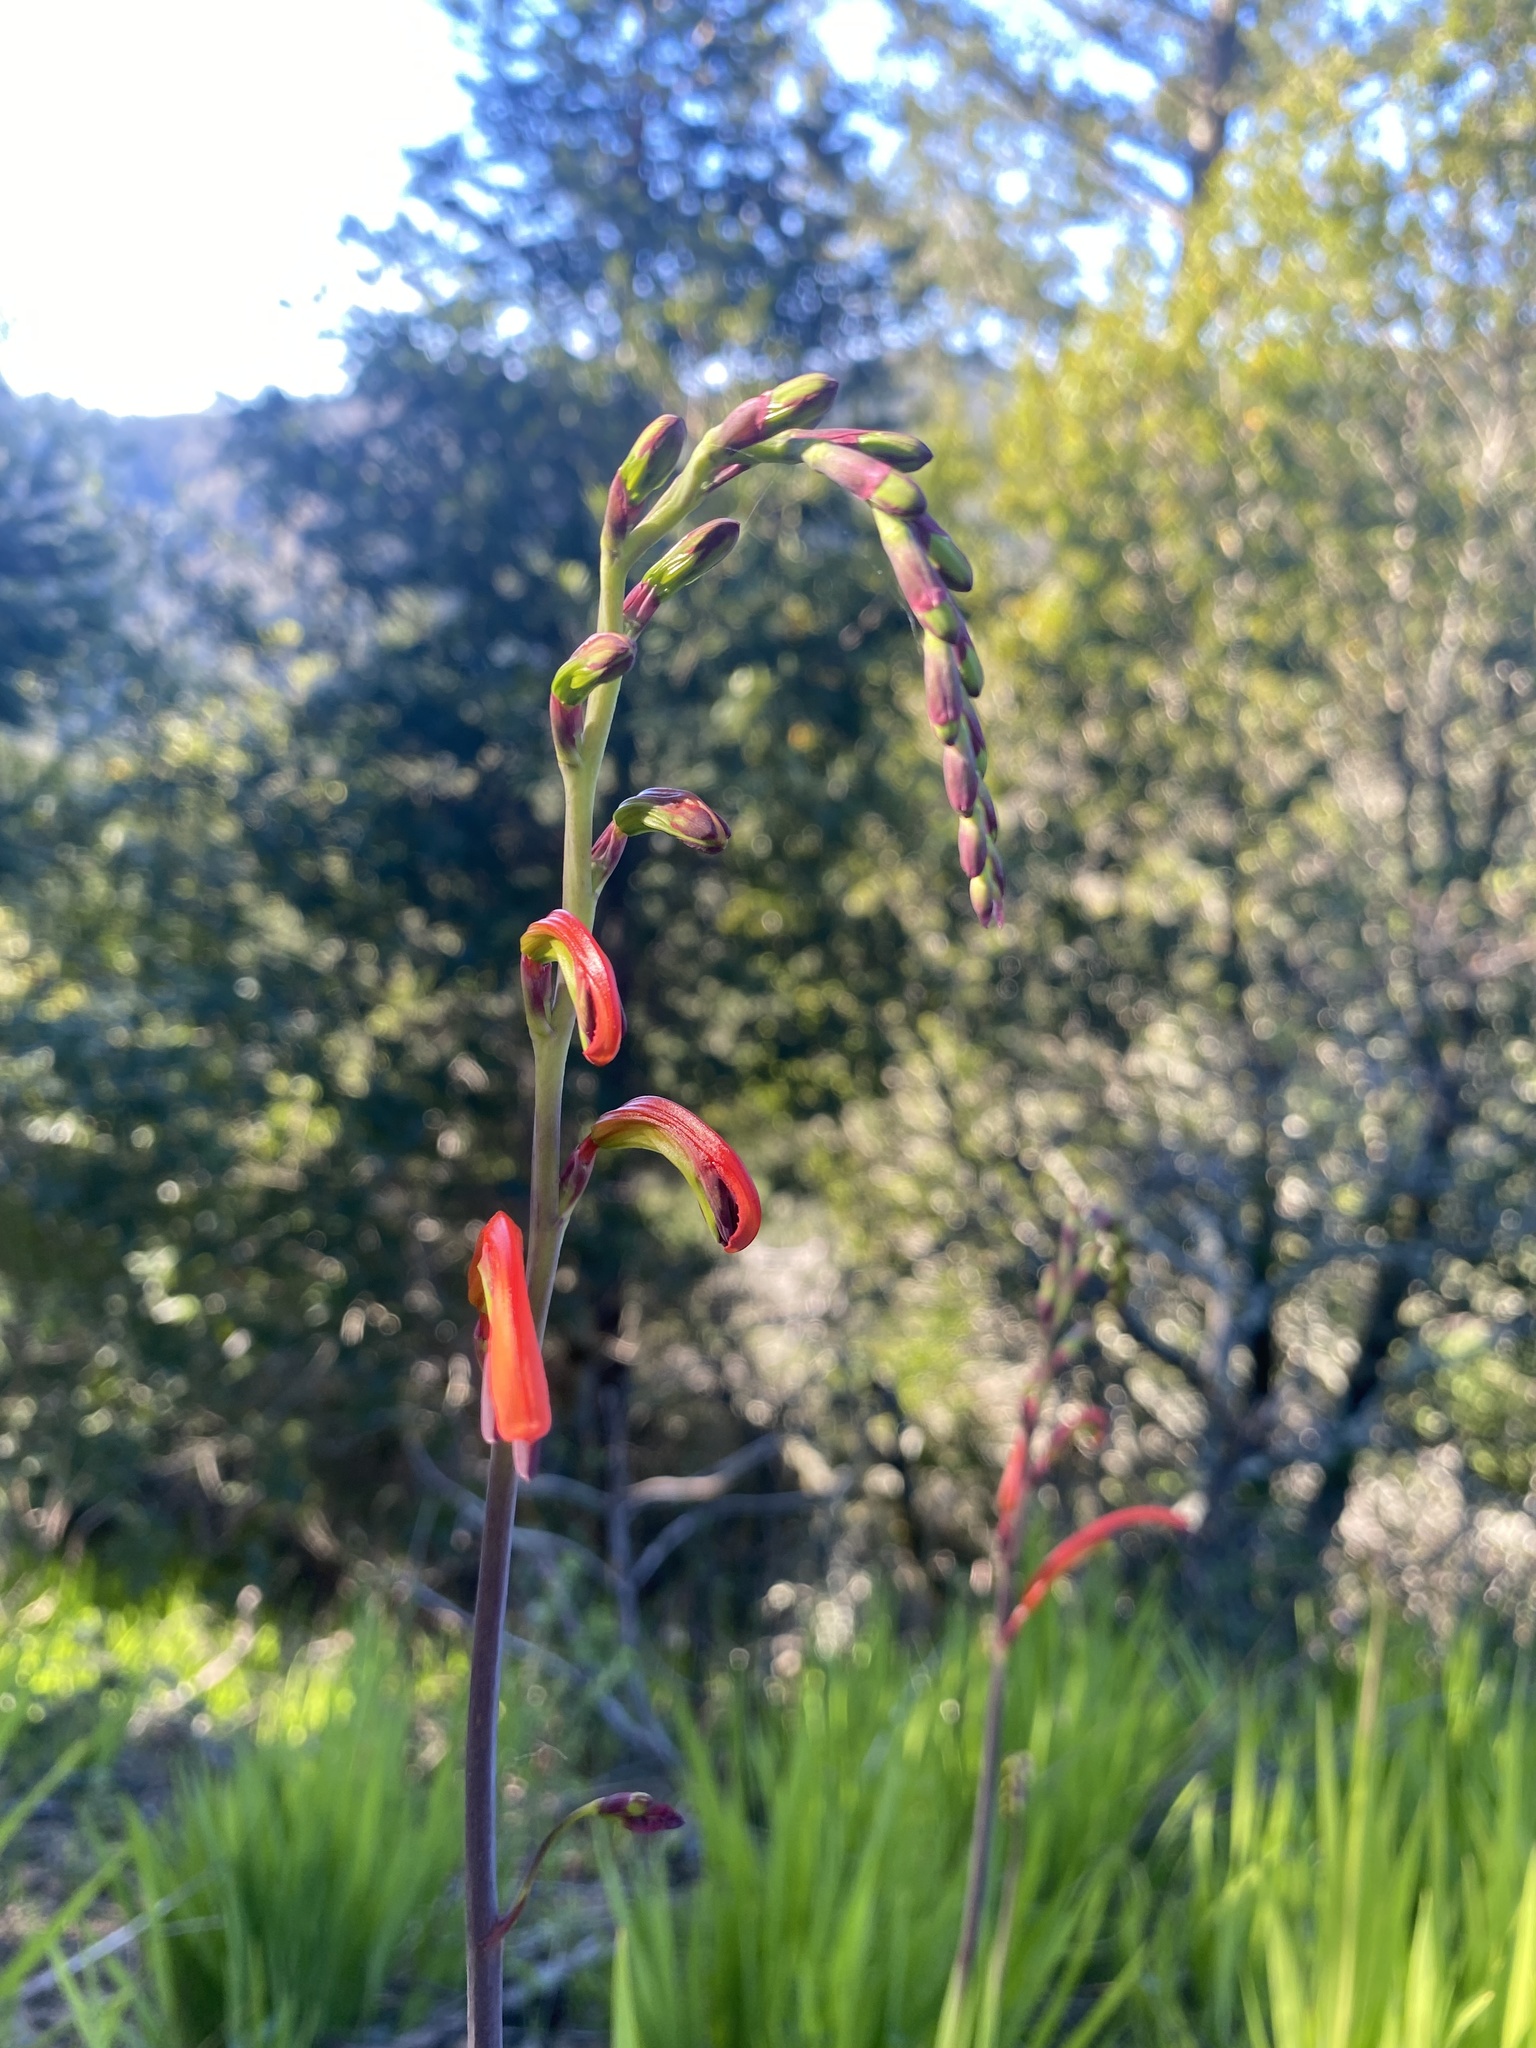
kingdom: Plantae
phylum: Tracheophyta
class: Liliopsida
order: Asparagales
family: Iridaceae
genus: Chasmanthe
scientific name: Chasmanthe bicolor
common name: Bicolor cobra lily
